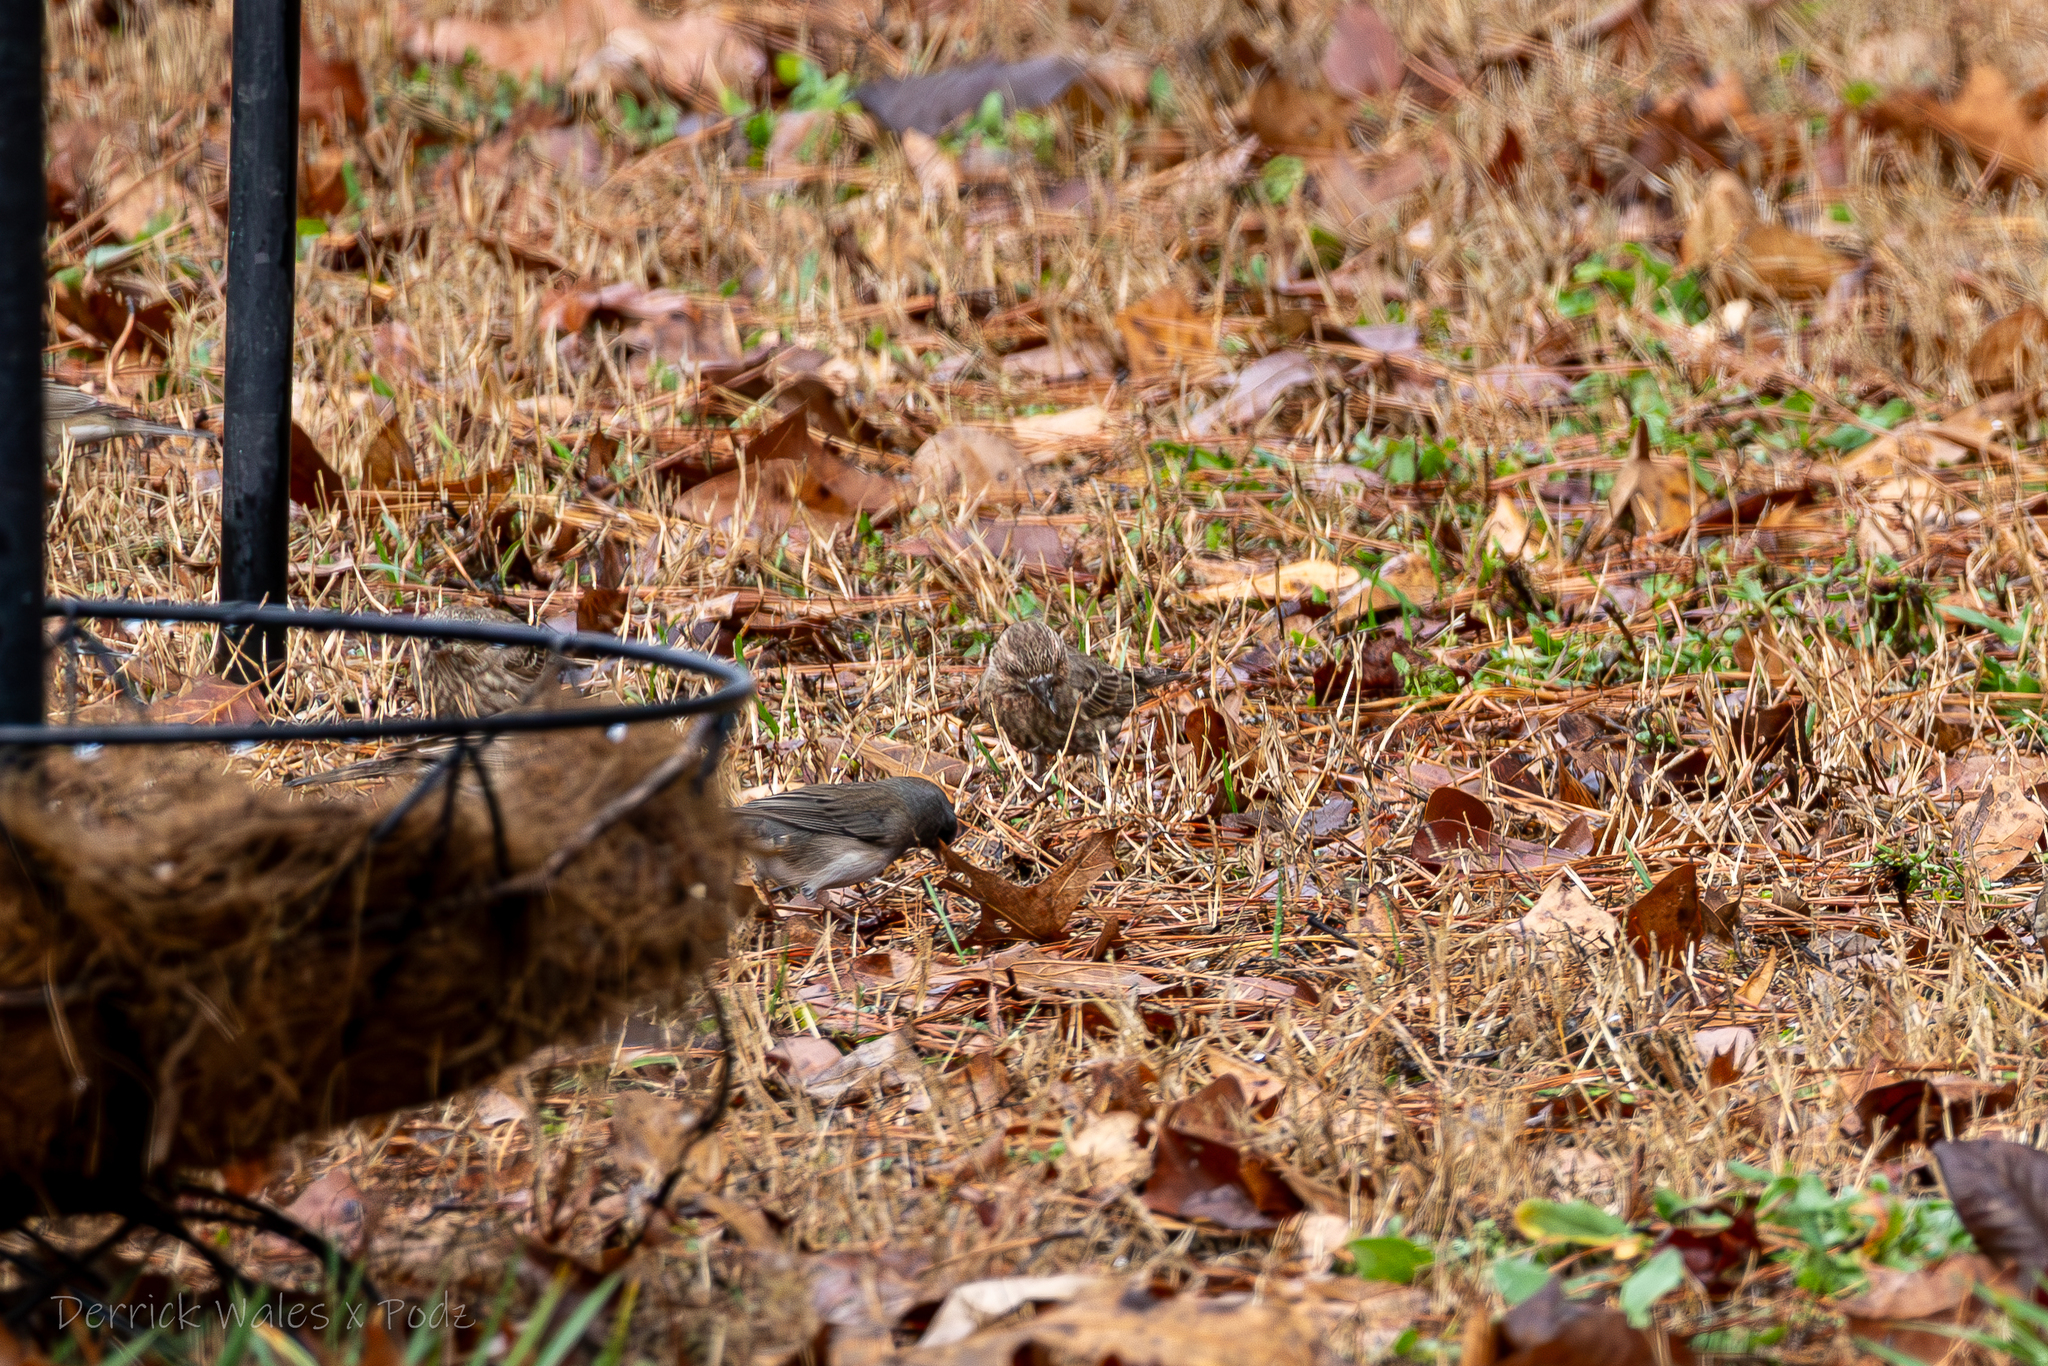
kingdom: Animalia
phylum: Chordata
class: Aves
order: Passeriformes
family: Fringillidae
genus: Haemorhous
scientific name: Haemorhous mexicanus
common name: House finch
